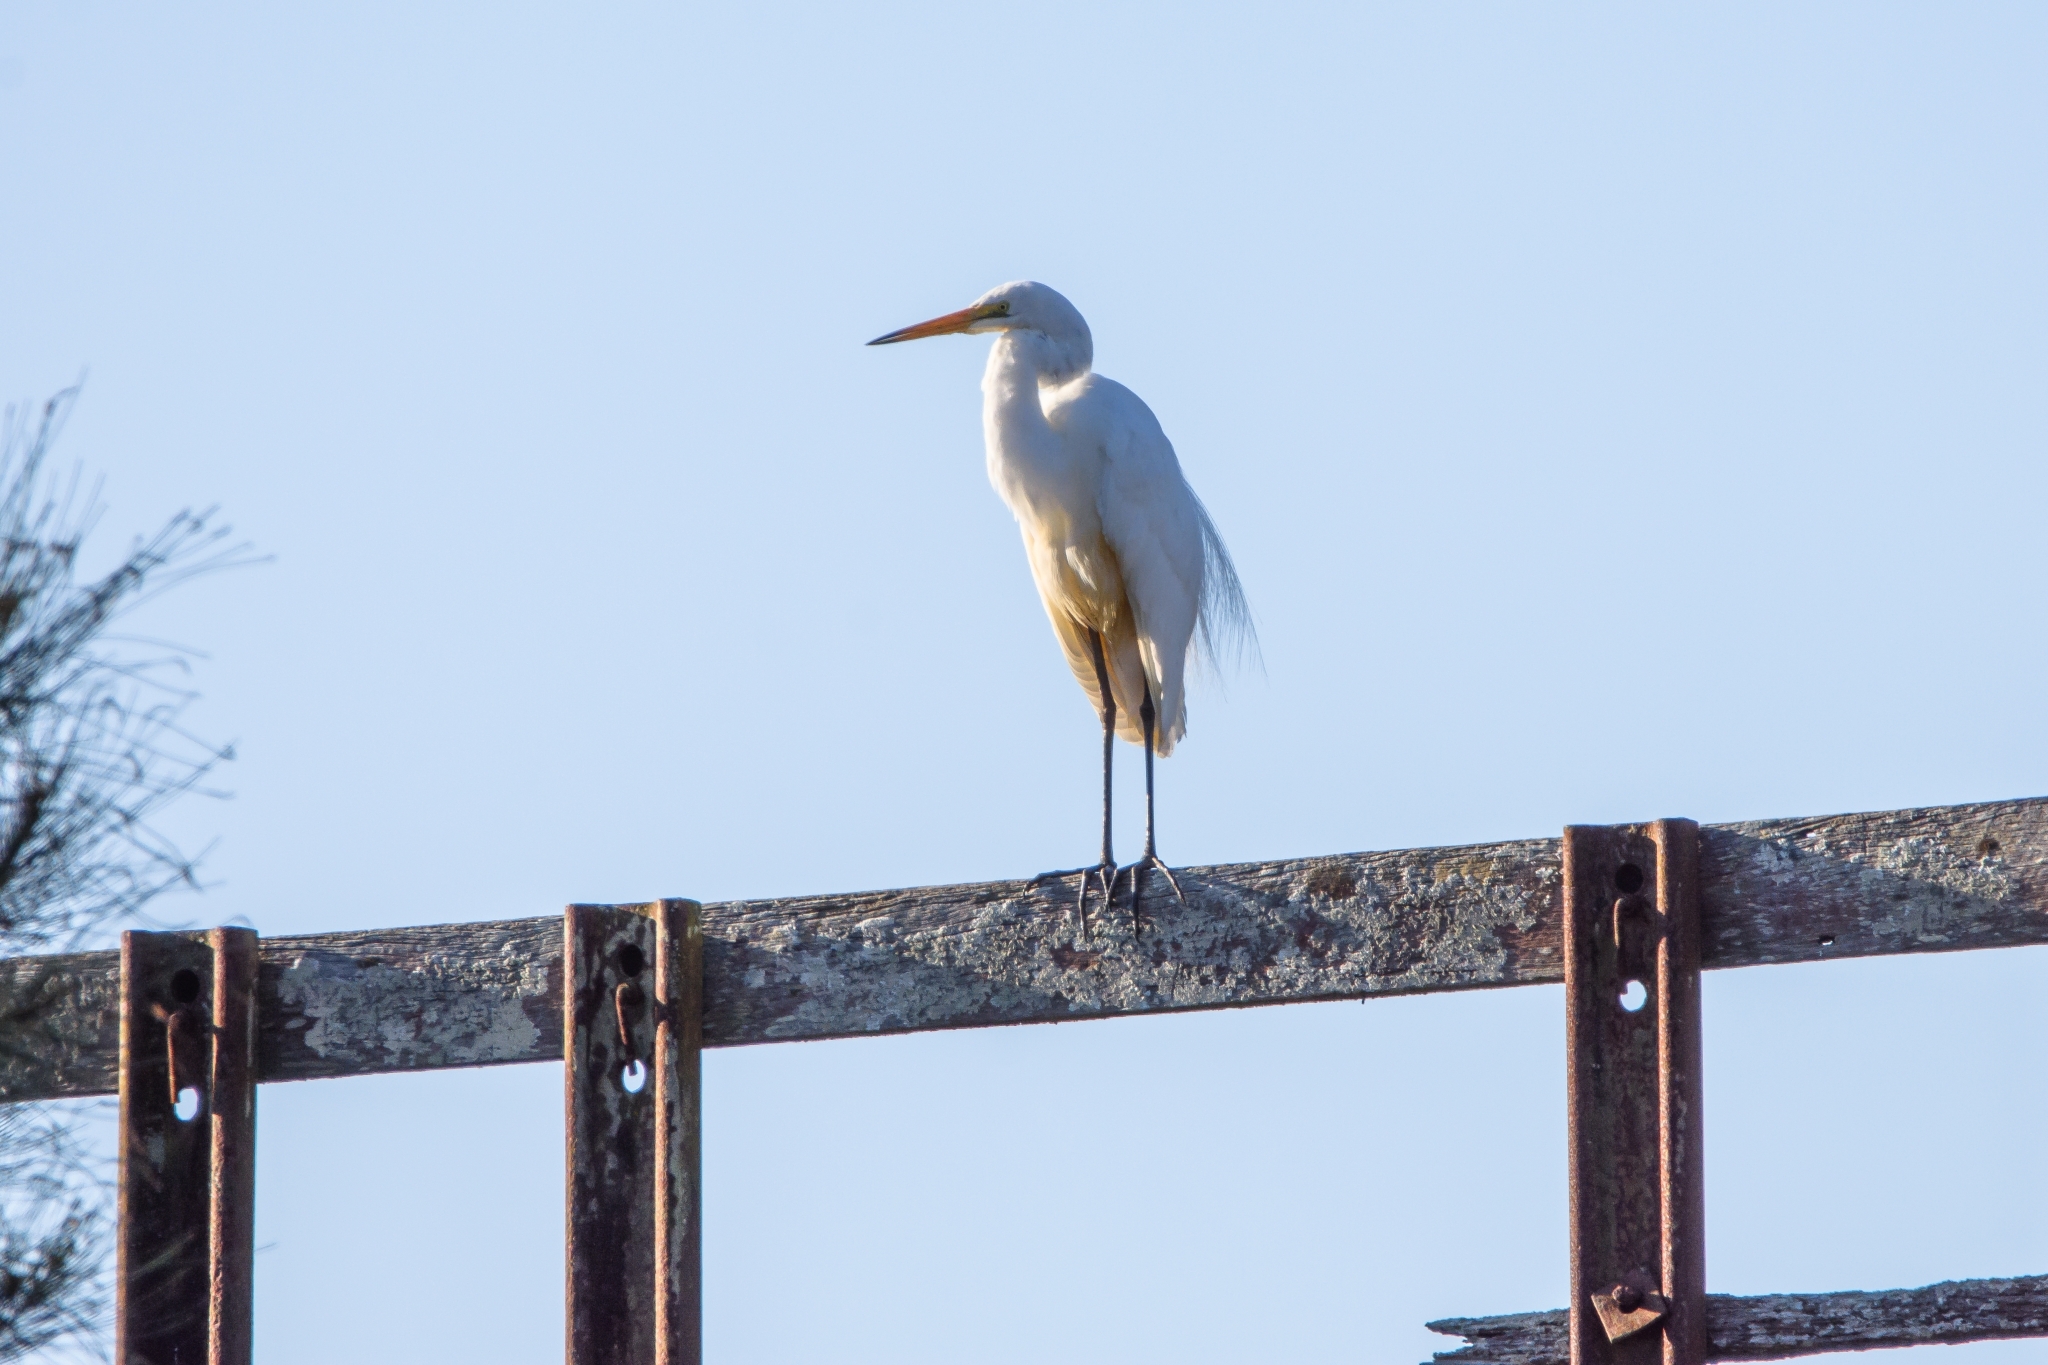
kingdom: Animalia
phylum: Chordata
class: Aves
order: Pelecaniformes
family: Ardeidae
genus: Ardea
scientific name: Ardea modesta
